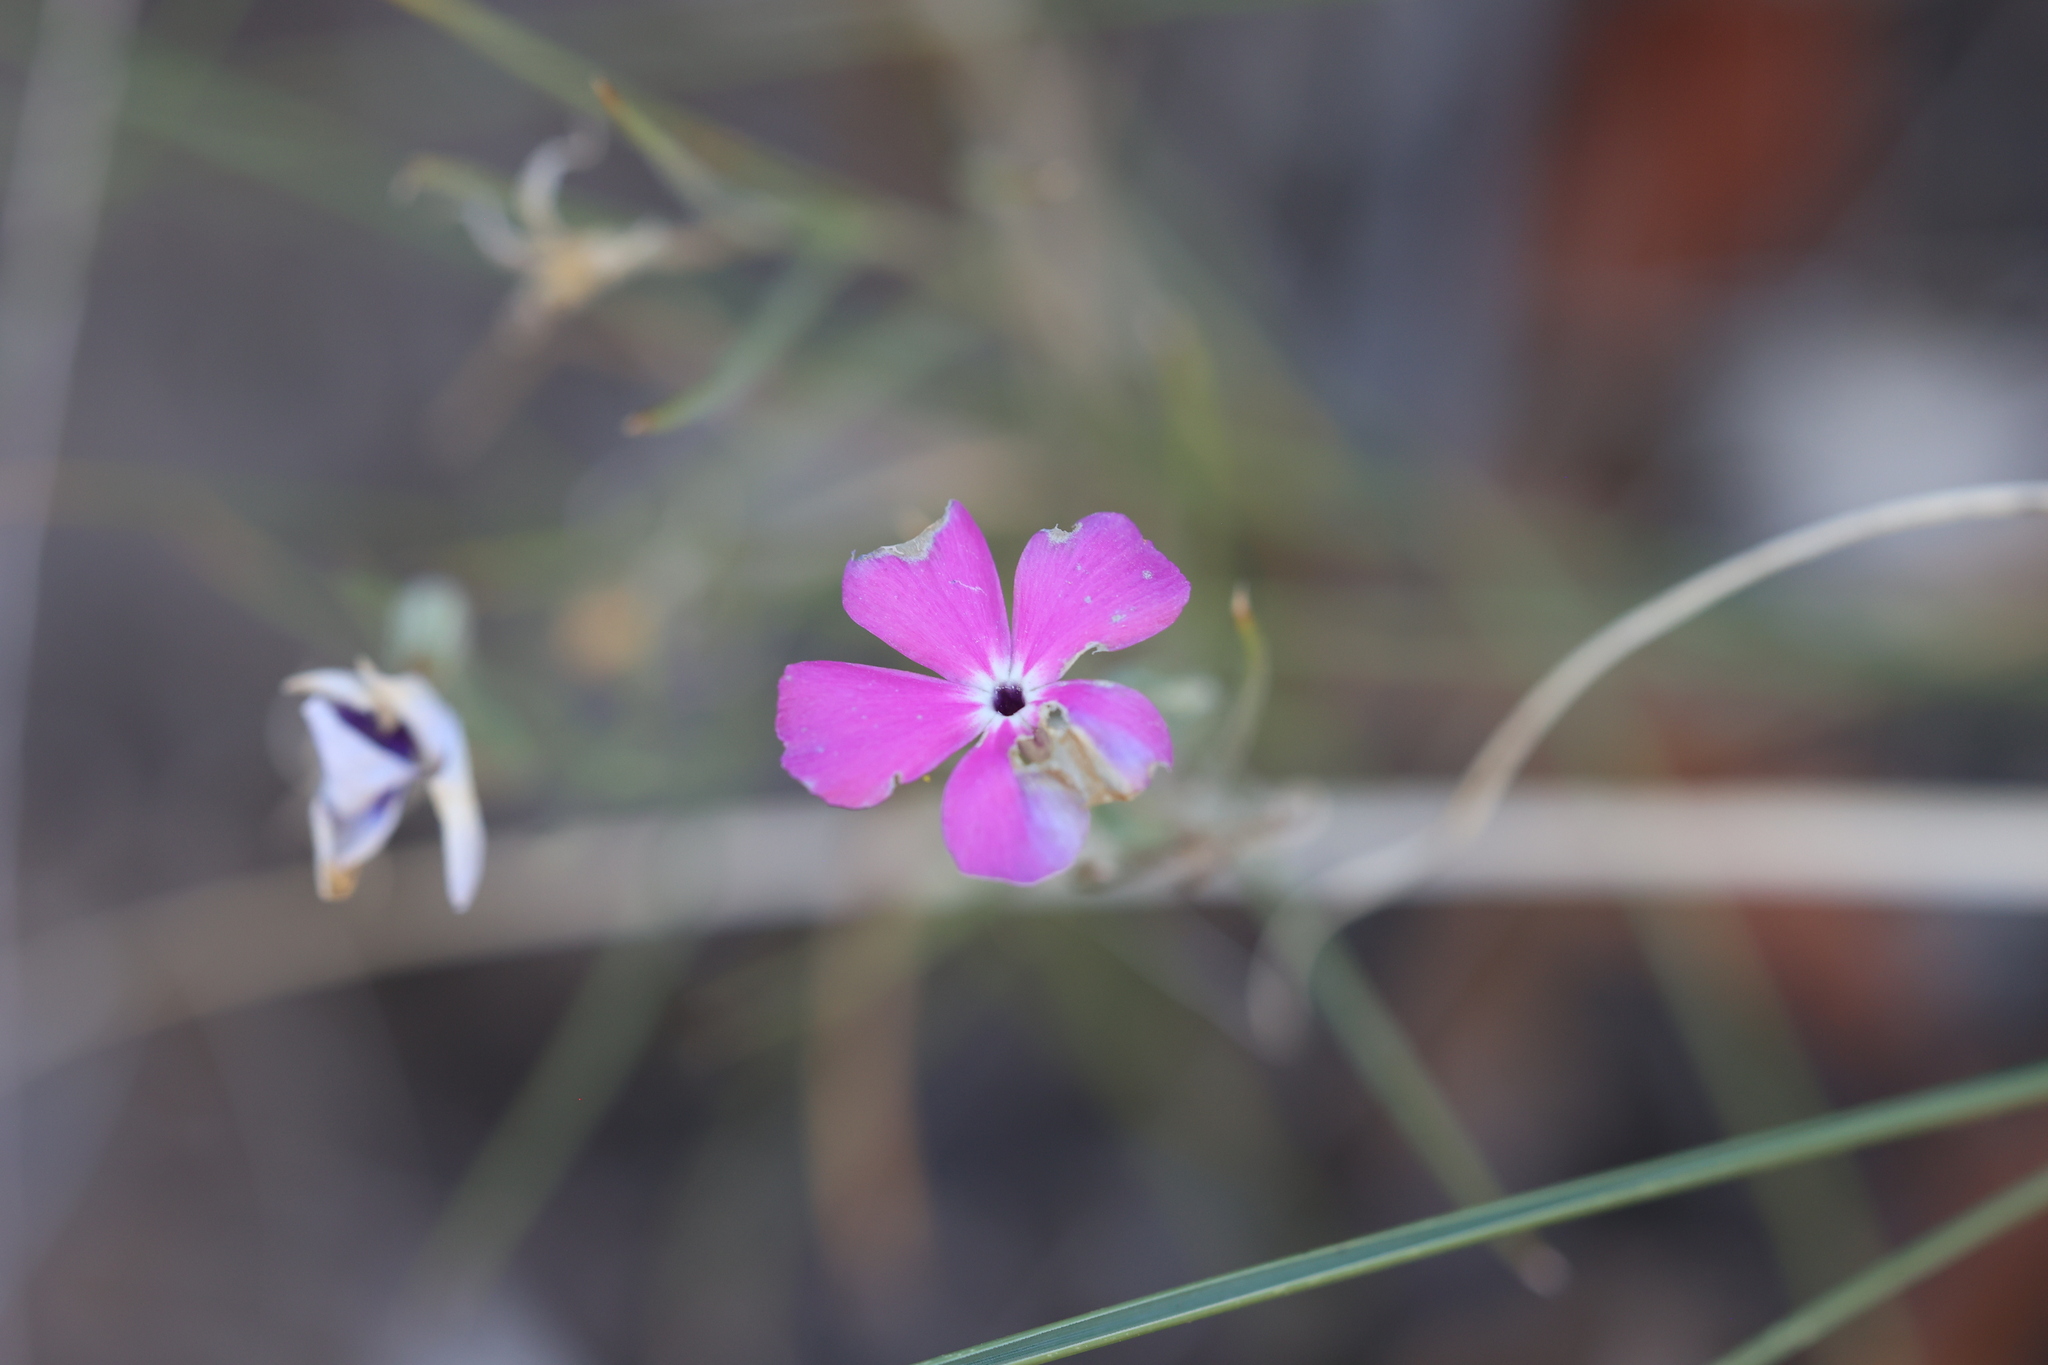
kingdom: Plantae
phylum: Tracheophyta
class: Magnoliopsida
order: Ericales
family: Polemoniaceae
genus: Phlox
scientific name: Phlox nana
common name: Santa fe phlox
